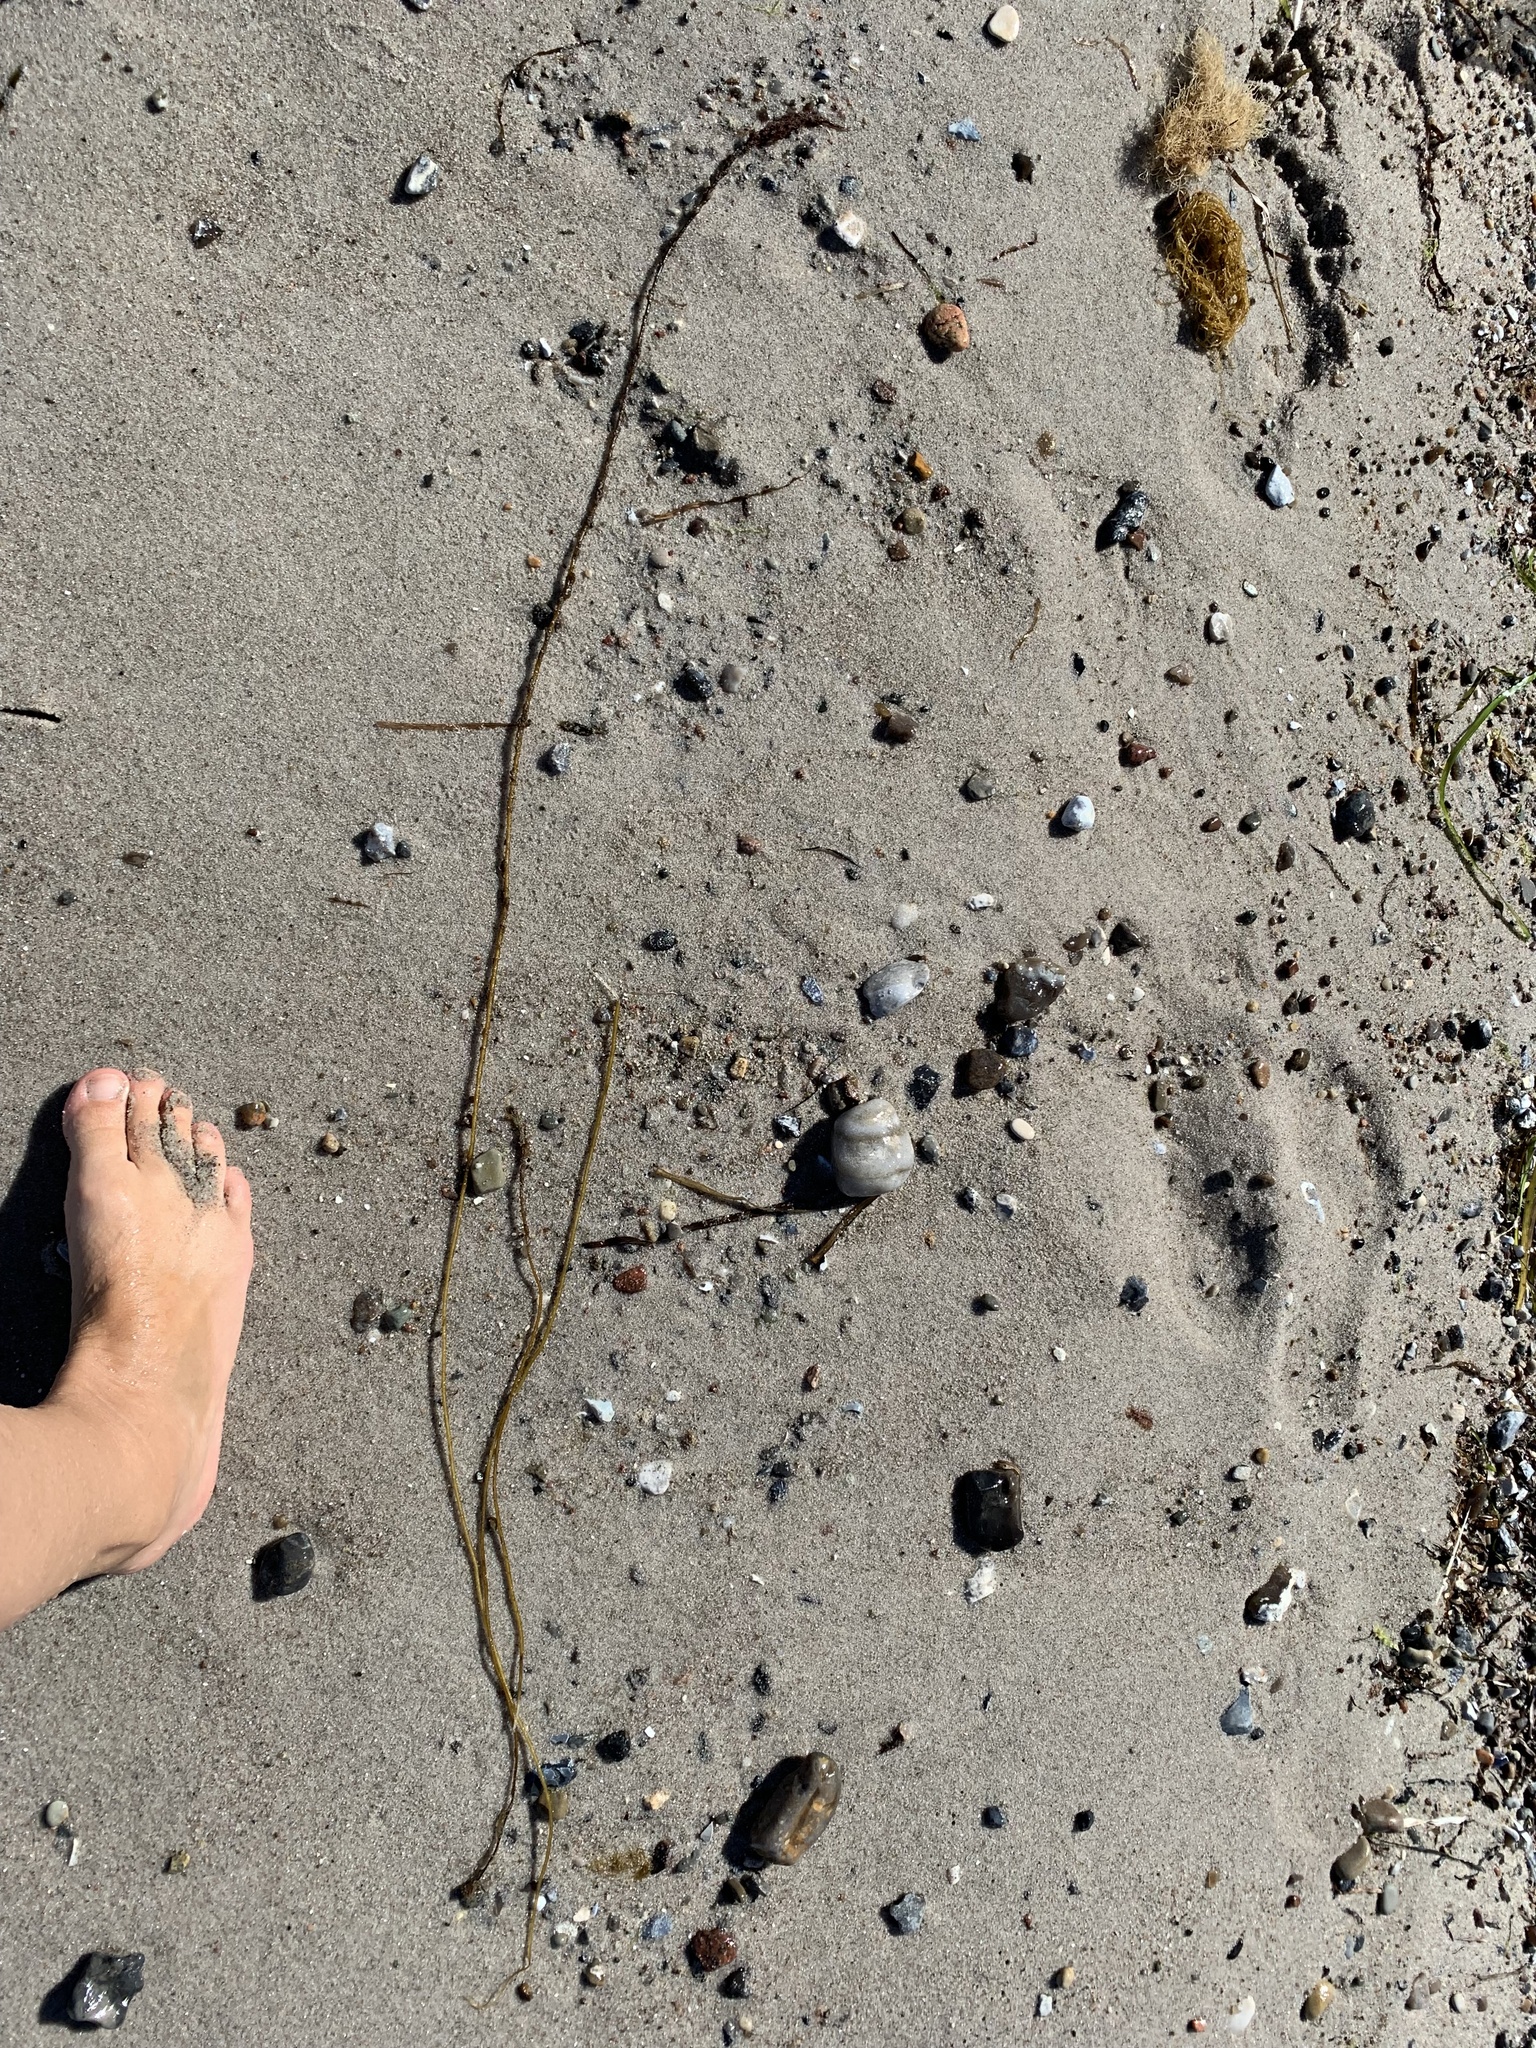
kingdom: Chromista
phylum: Ochrophyta
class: Phaeophyceae
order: Laminariales
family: Chordaceae
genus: Chorda
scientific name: Chorda filum
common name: Mermaid's tresses
